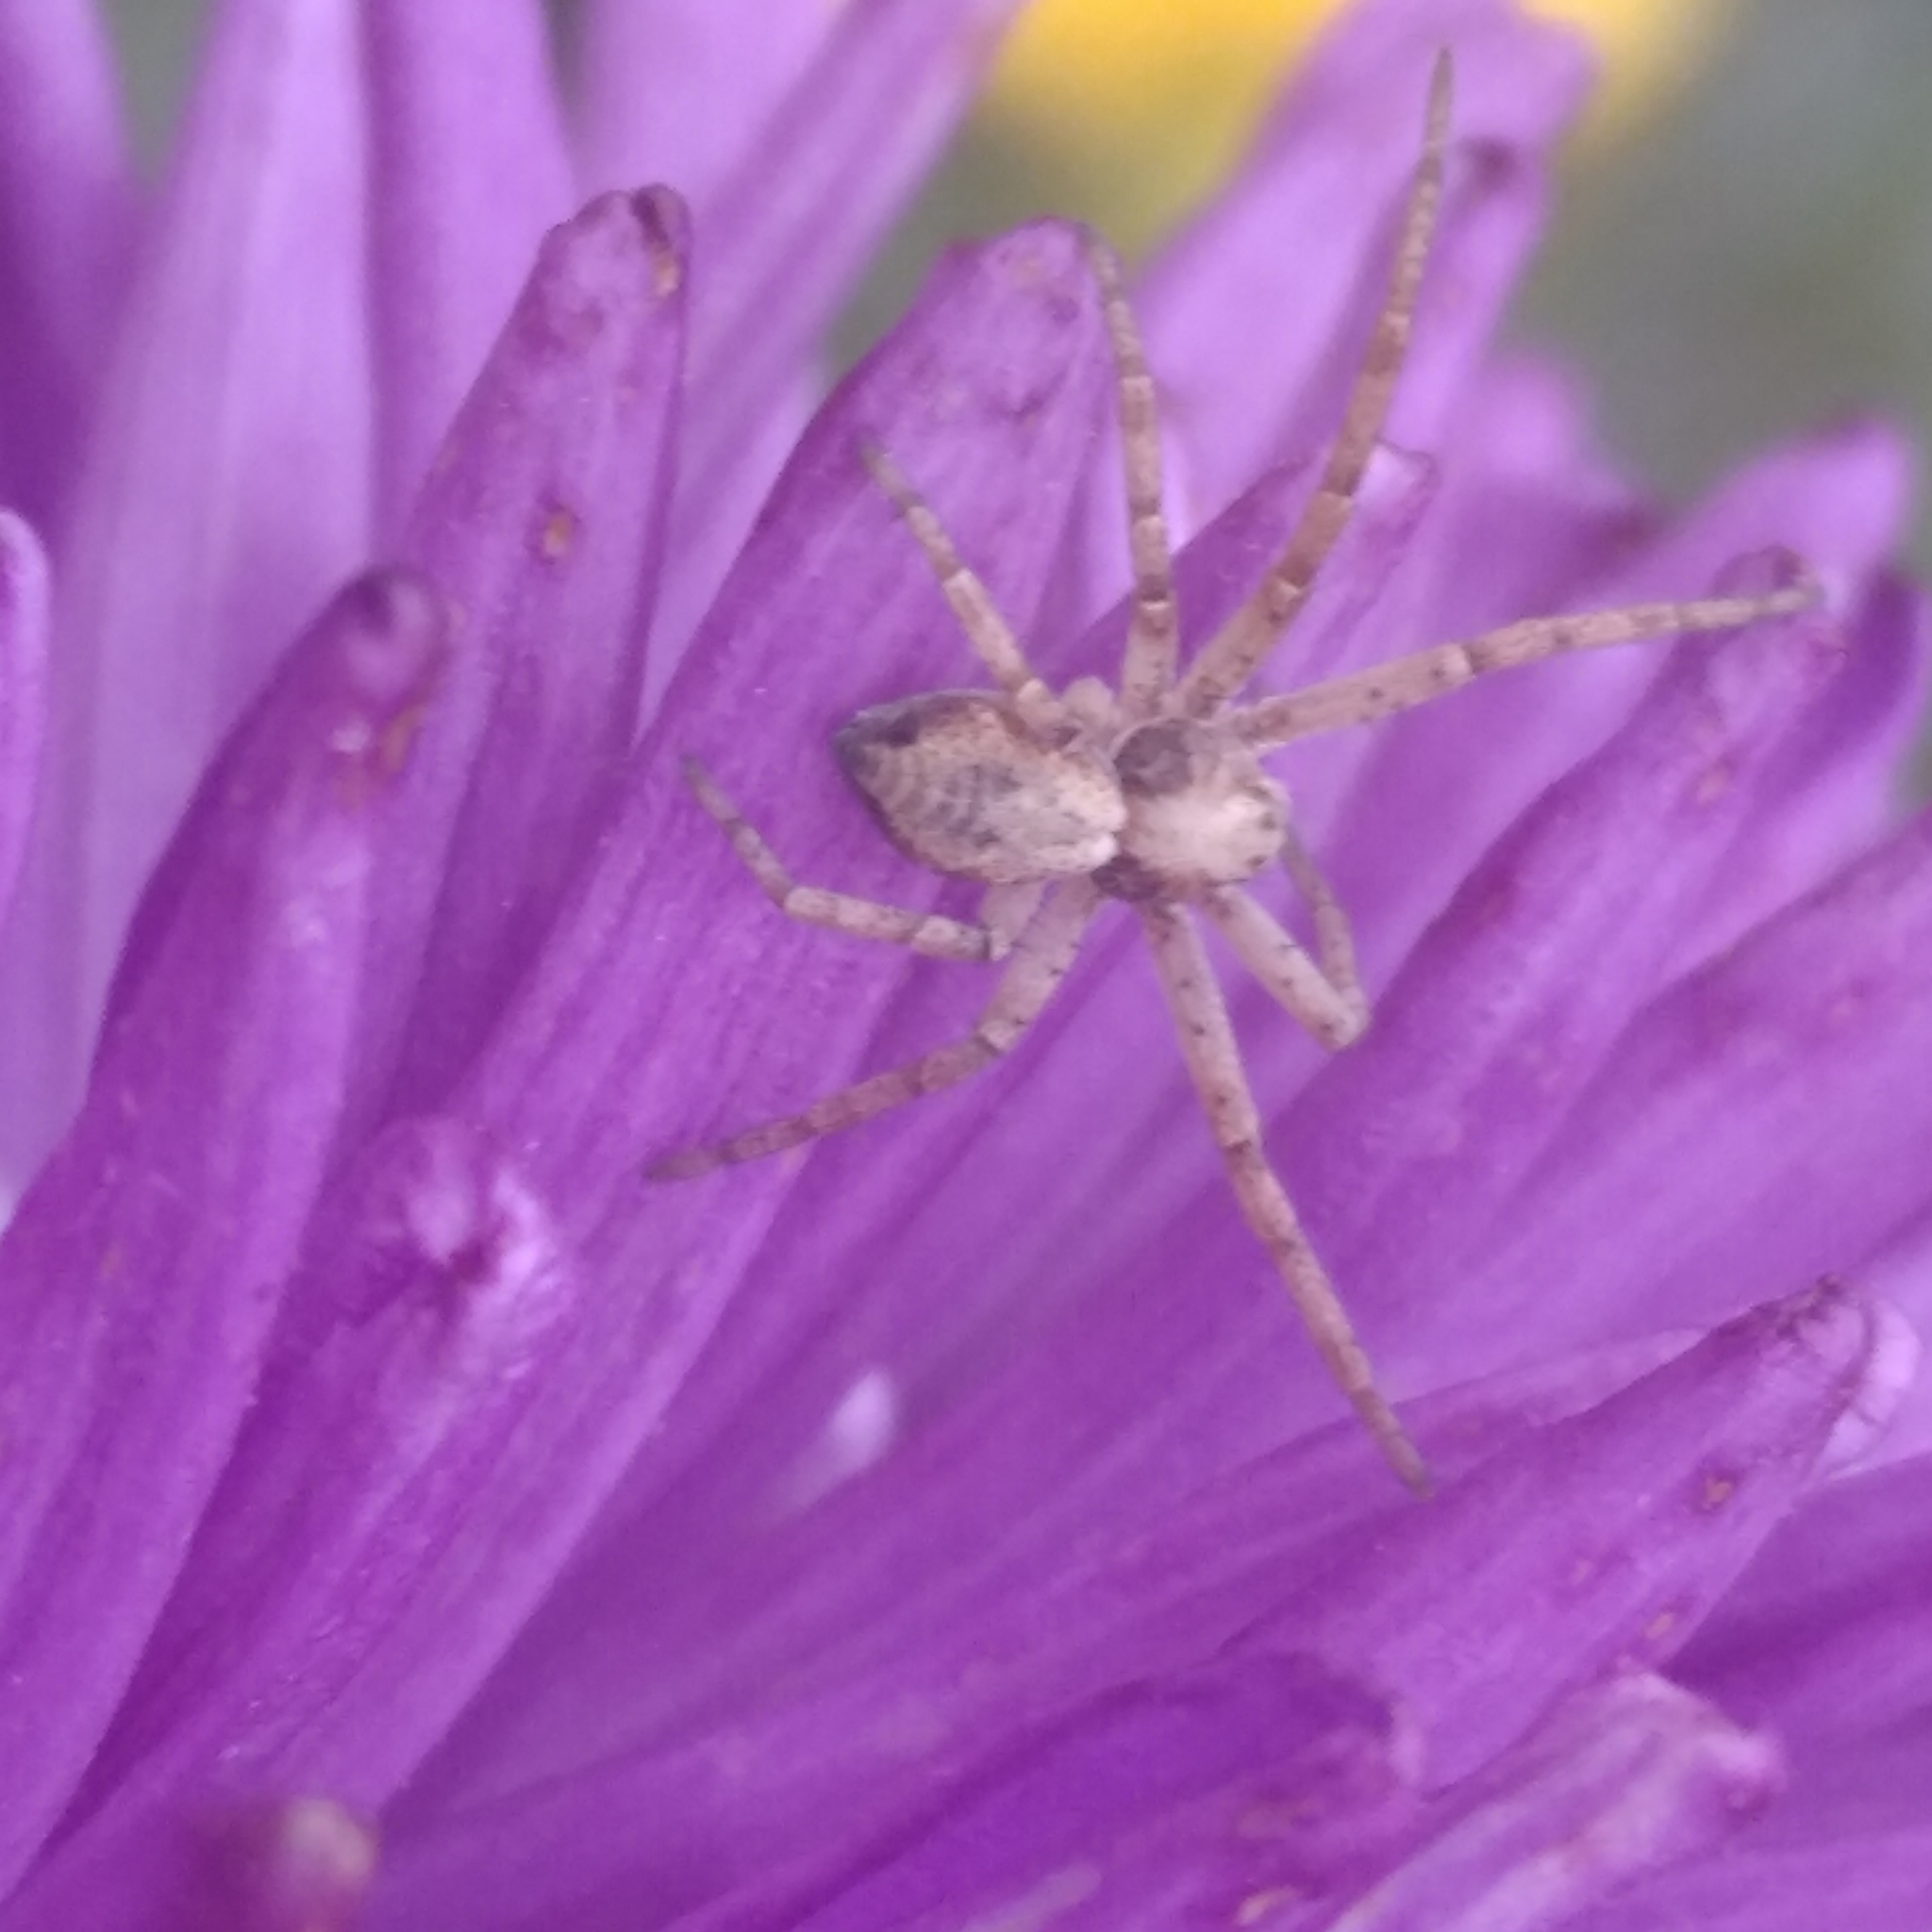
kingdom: Animalia
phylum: Arthropoda
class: Arachnida
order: Araneae
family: Philodromidae
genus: Philodromus
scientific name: Philodromus
